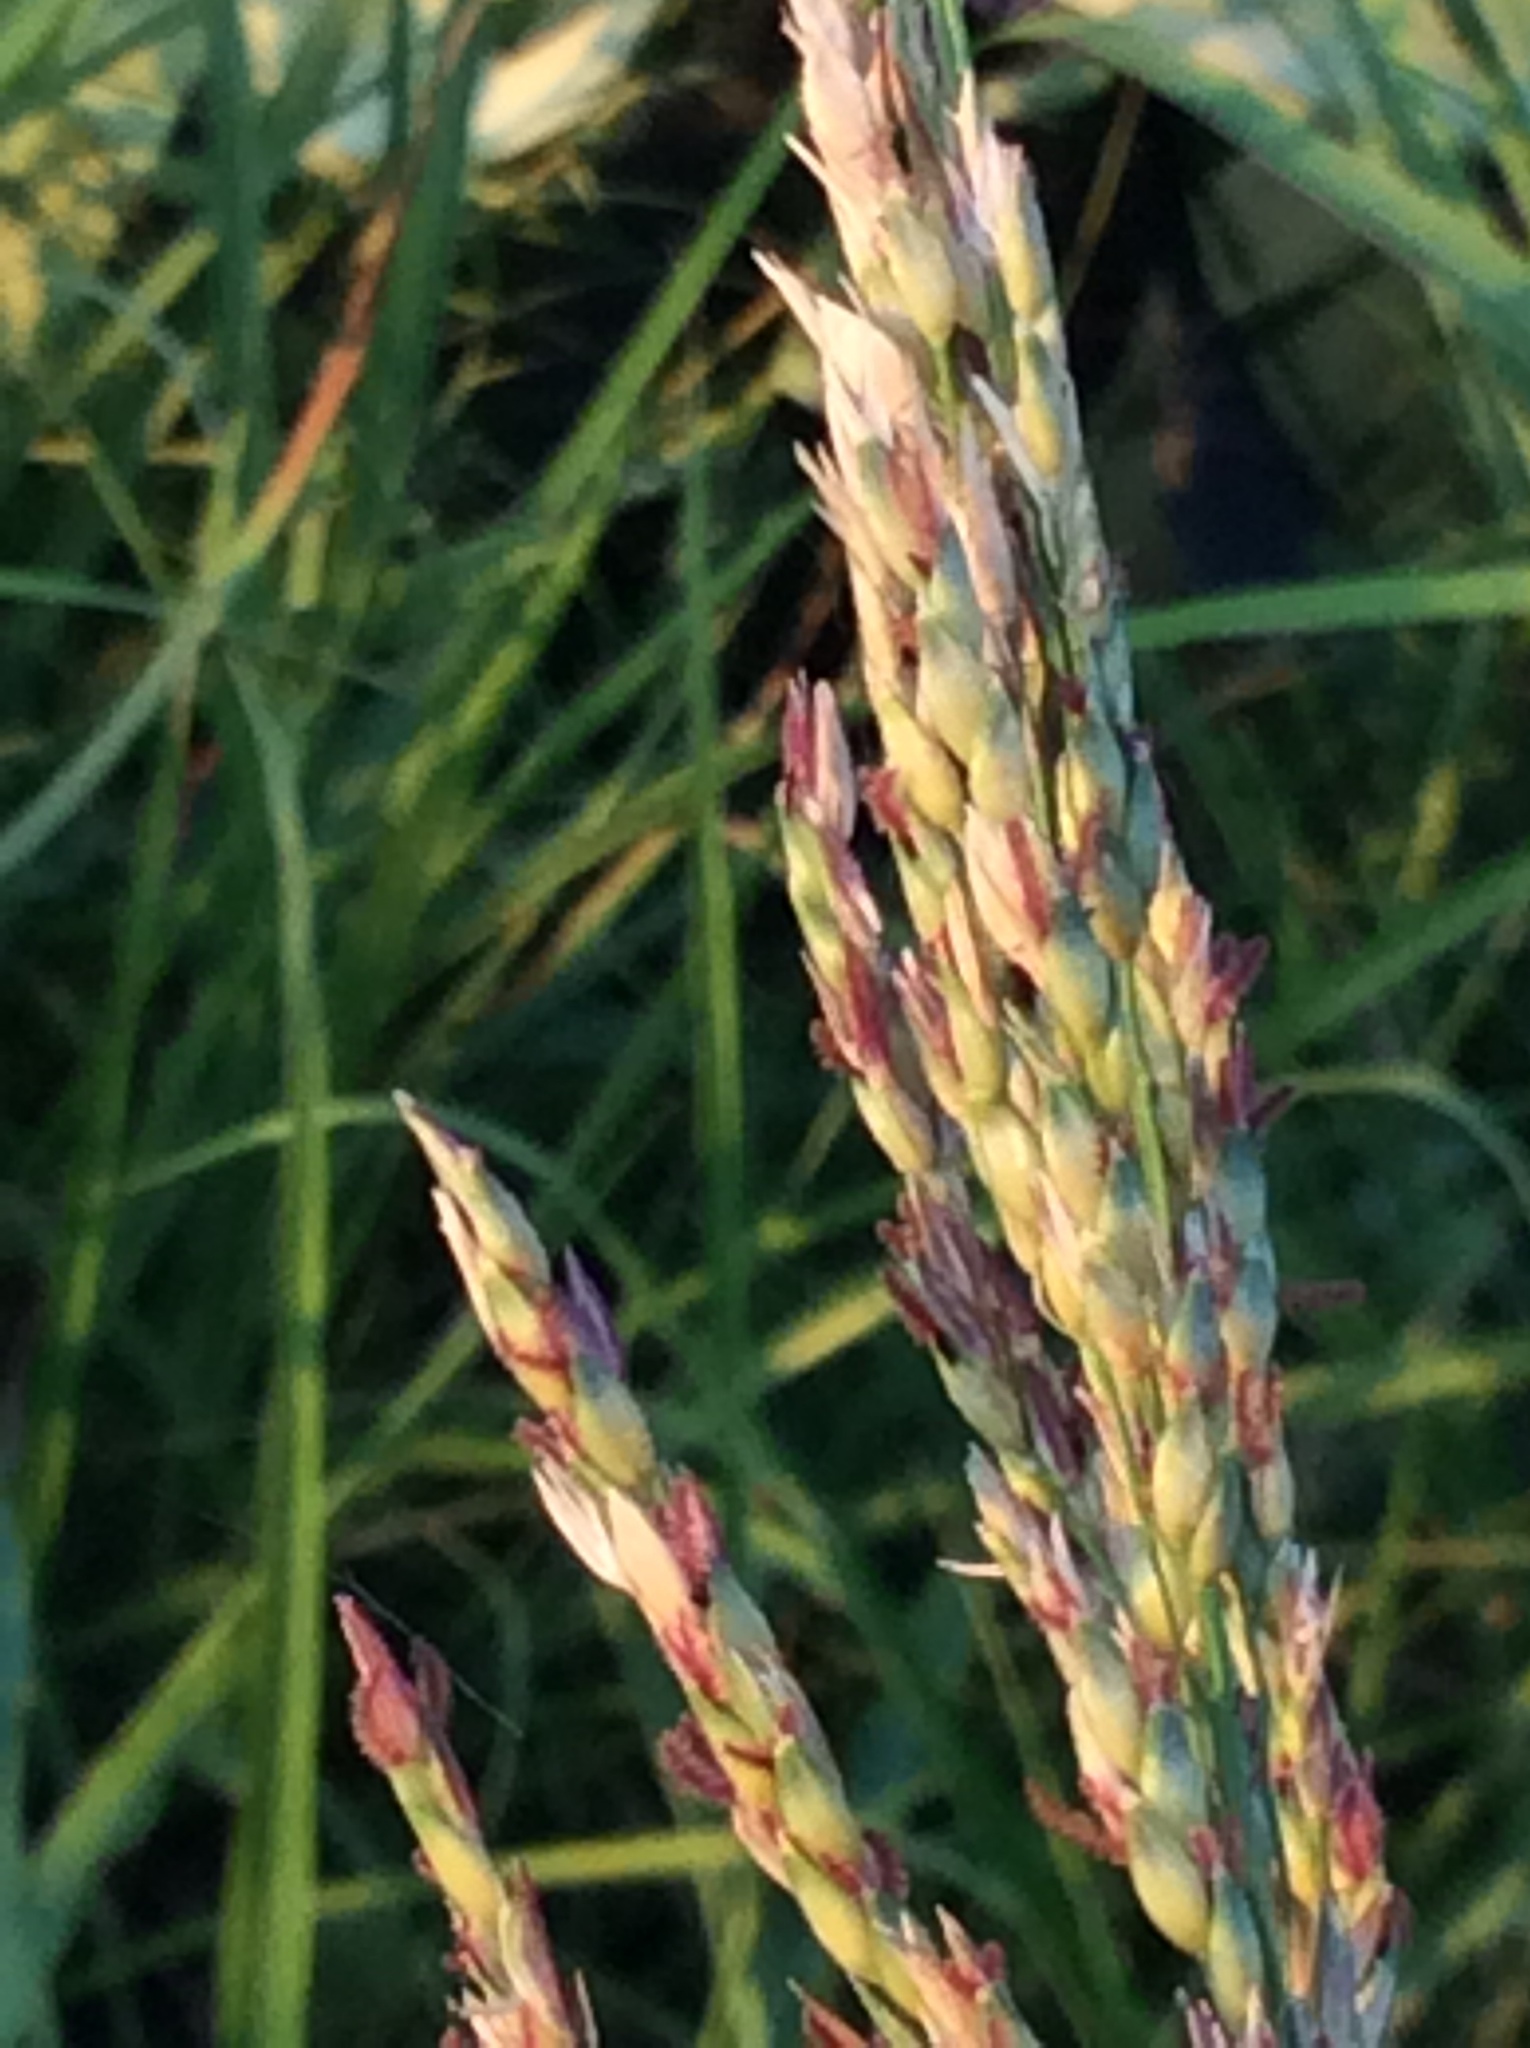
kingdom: Plantae
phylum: Tracheophyta
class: Liliopsida
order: Poales
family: Poaceae
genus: Sorghum
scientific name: Sorghum halepense
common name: Johnson-grass
